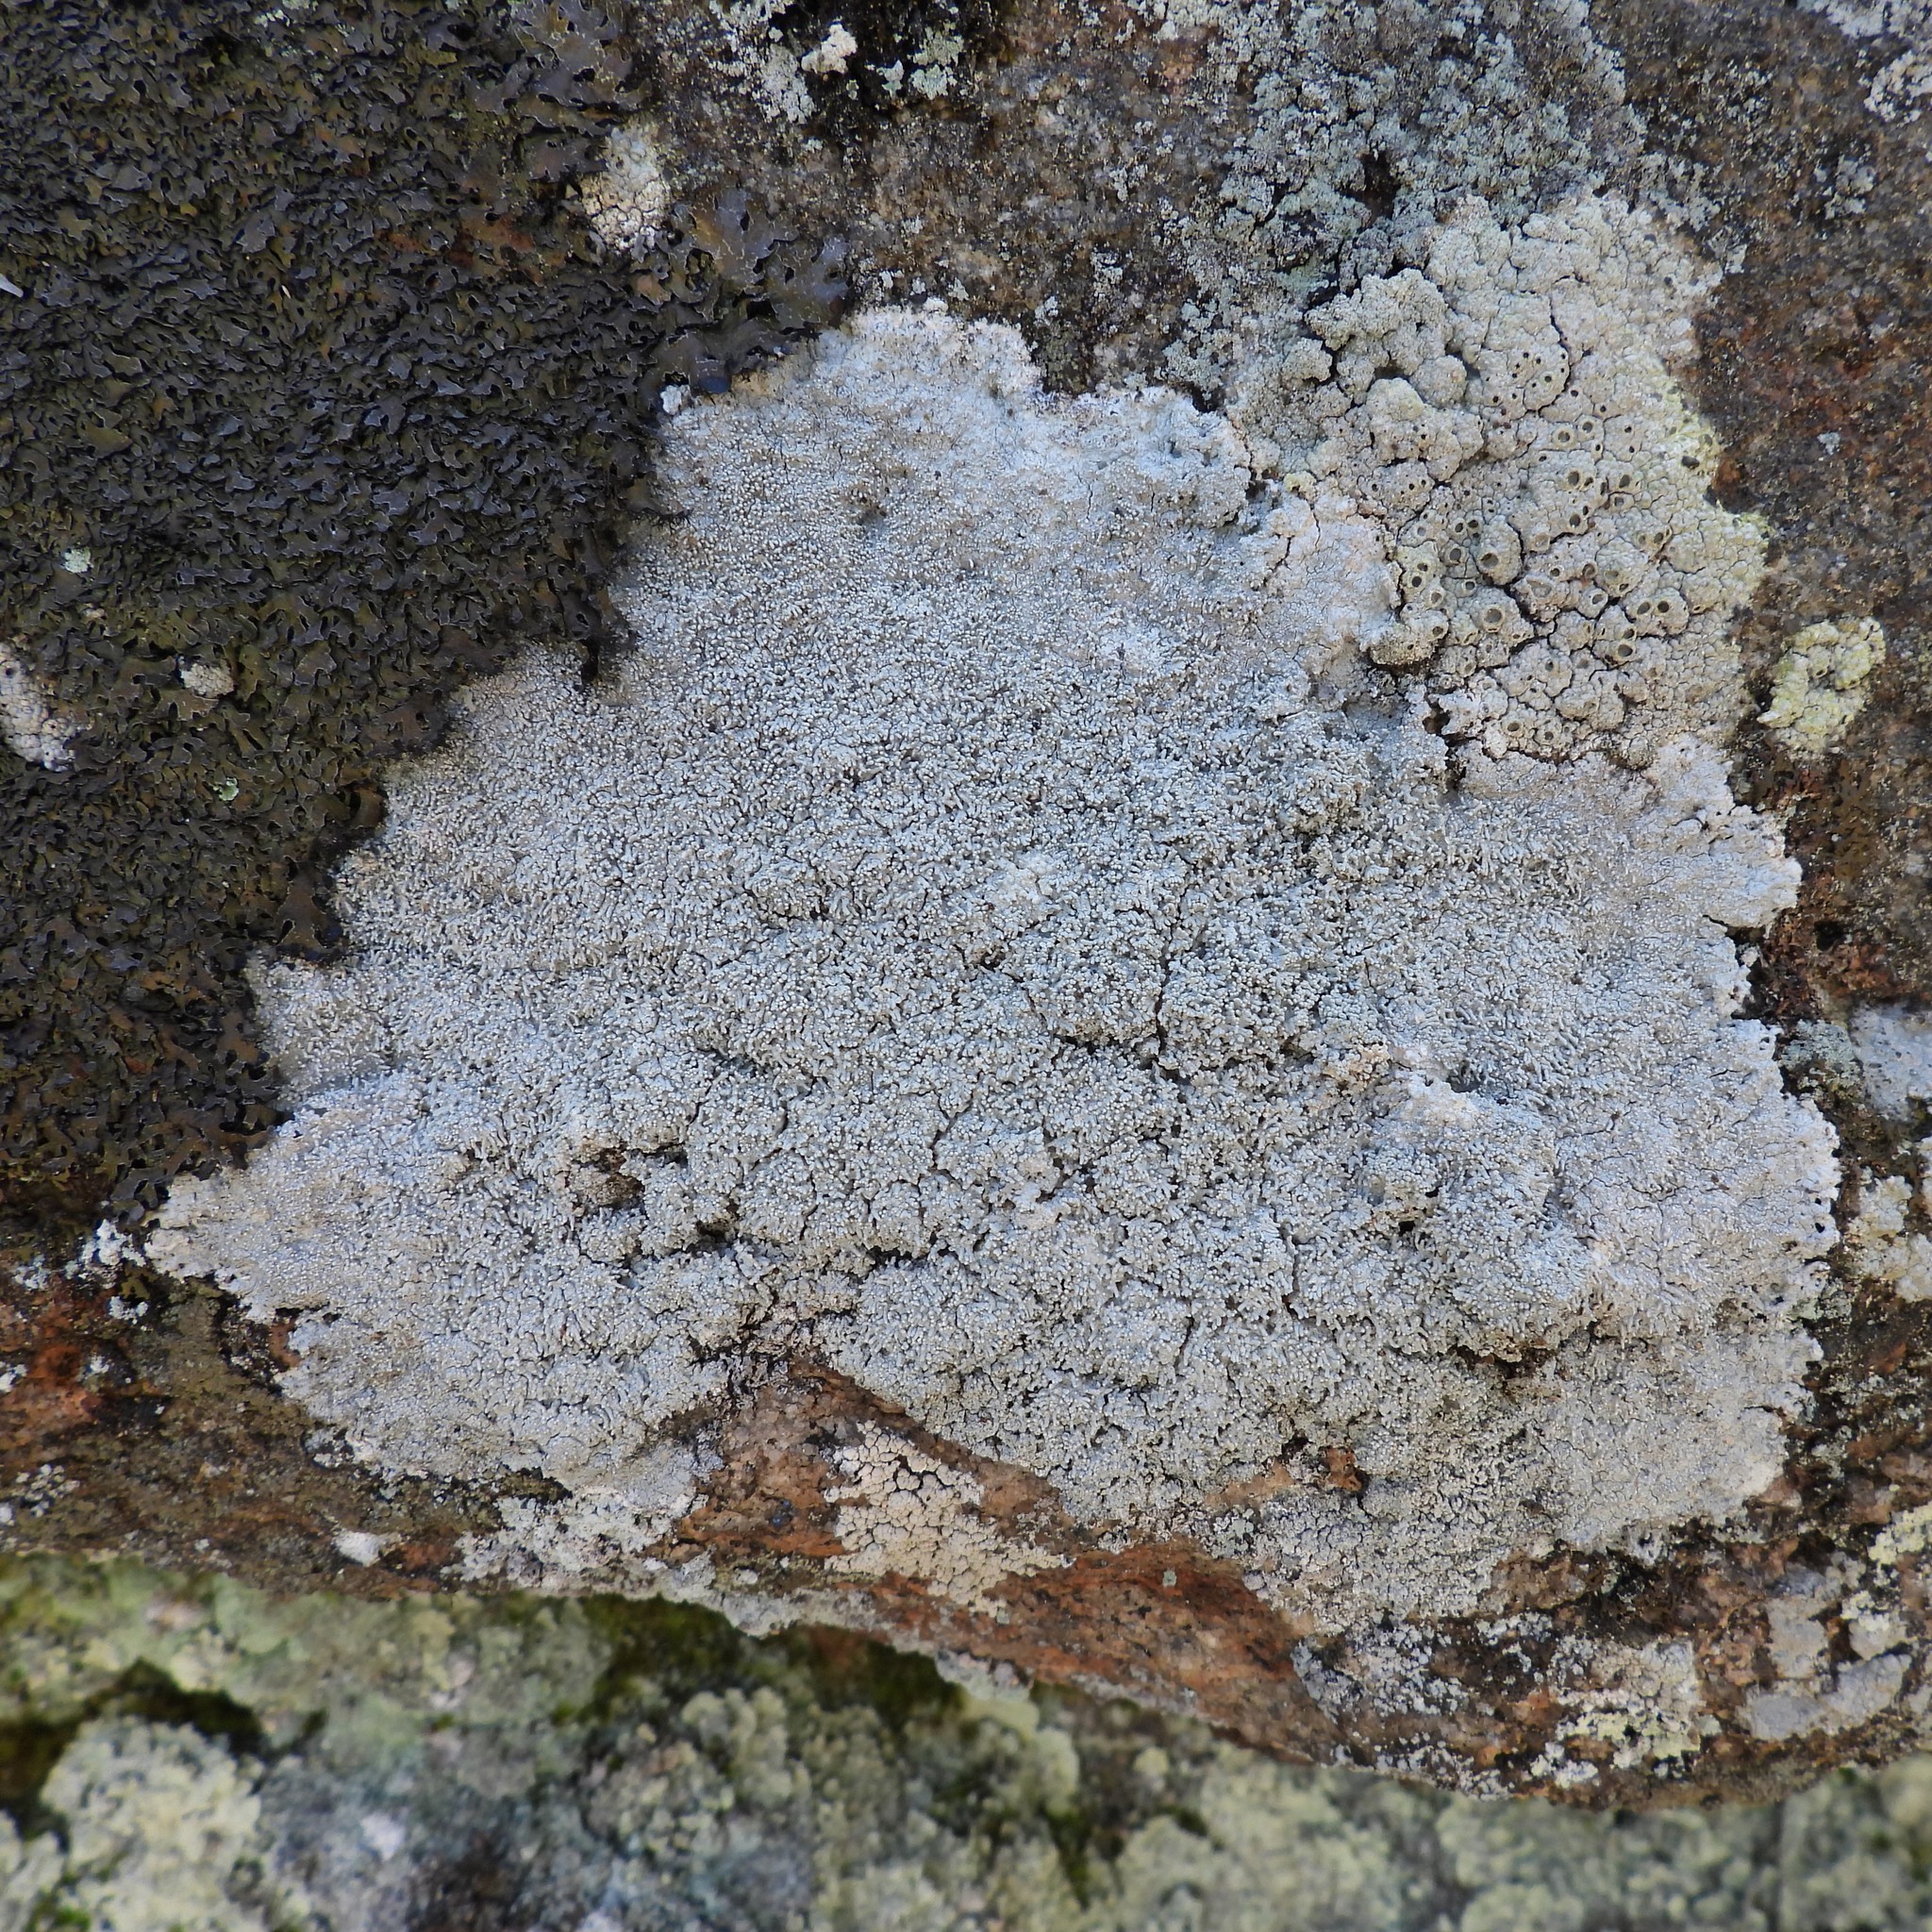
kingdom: Fungi
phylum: Ascomycota
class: Lecanoromycetes
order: Pertusariales
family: Pertusariaceae
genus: Lepra
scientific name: Lepra corallina
